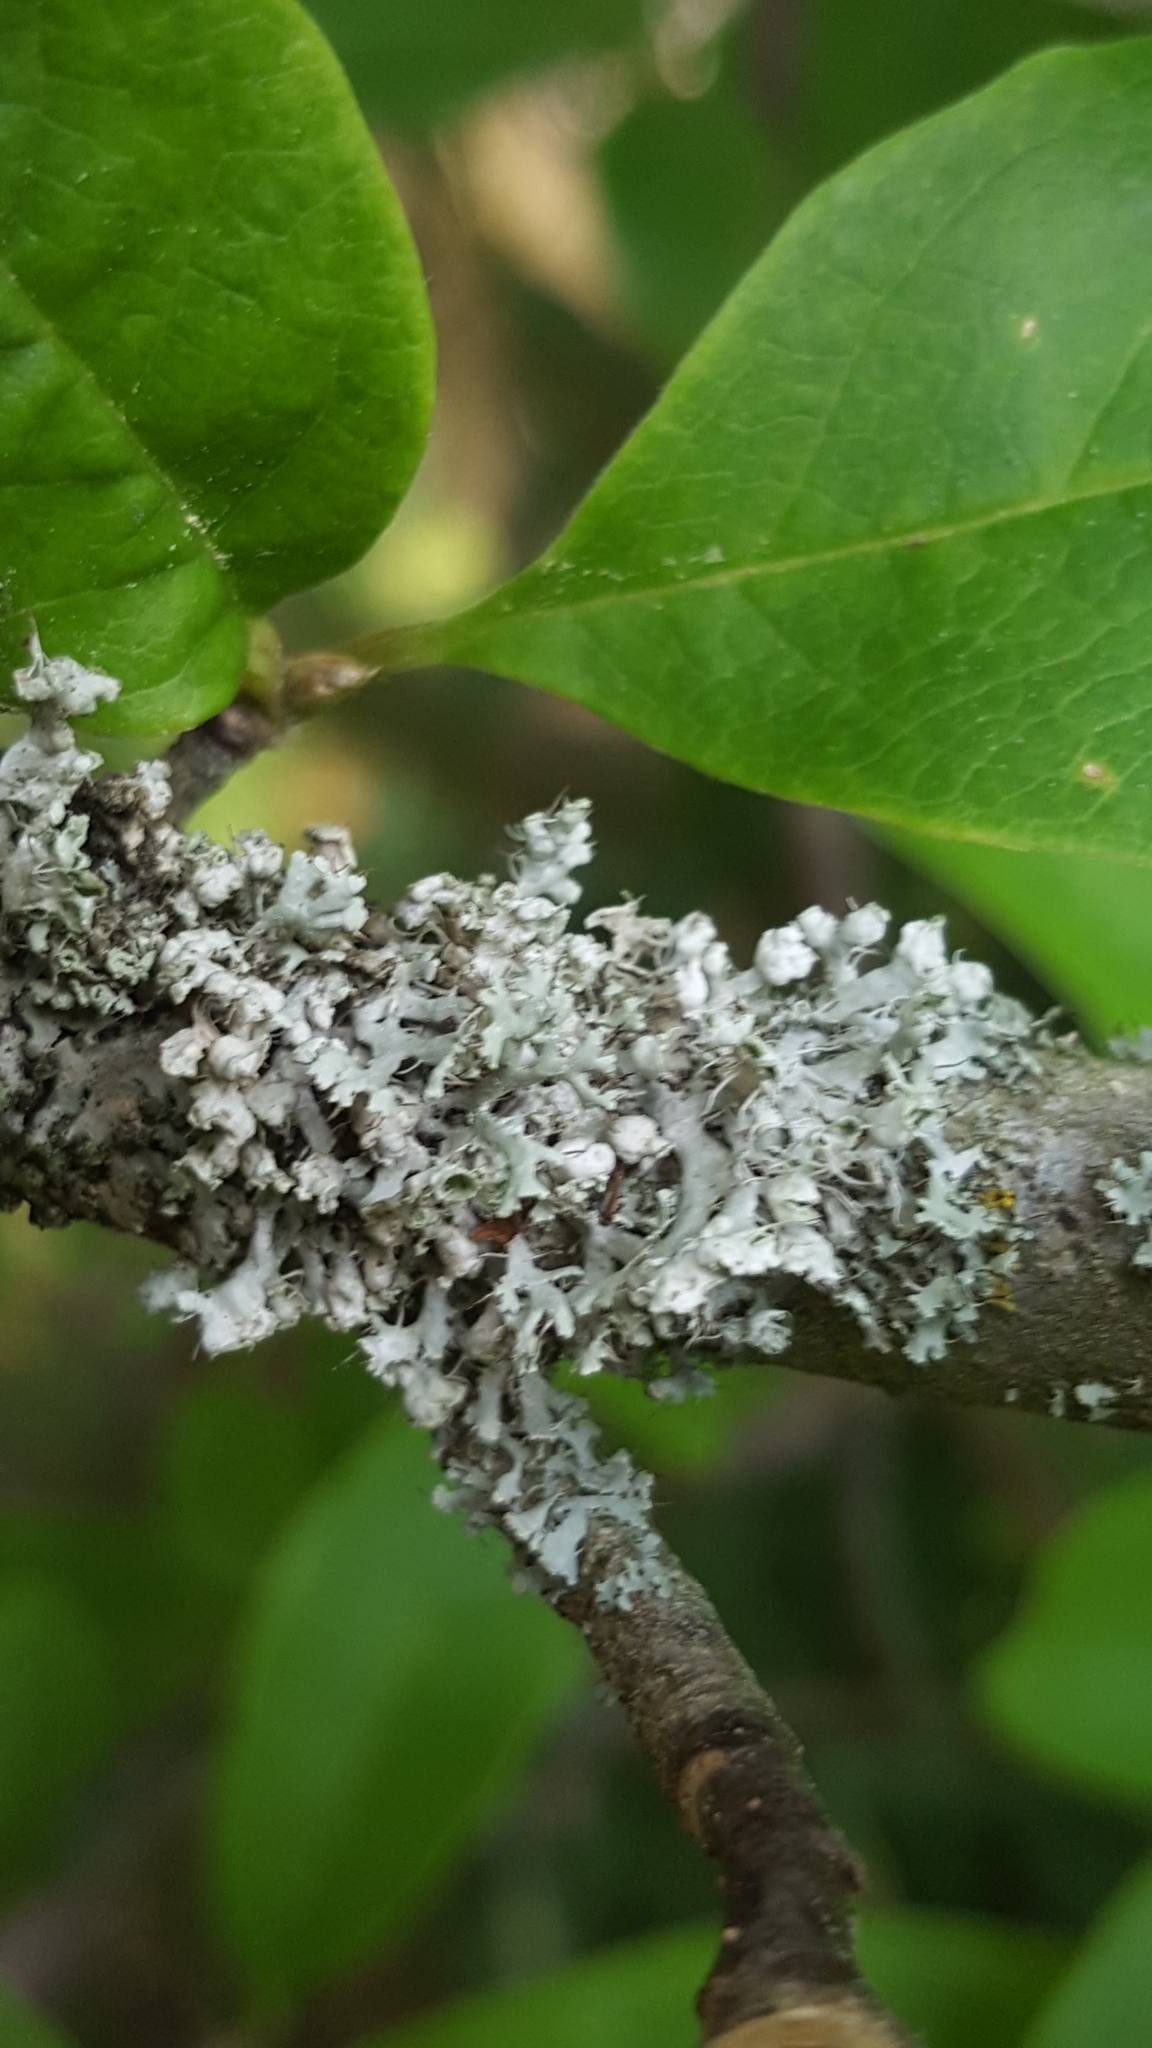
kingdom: Fungi
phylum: Ascomycota
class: Lecanoromycetes
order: Caliciales
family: Physciaceae
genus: Physcia
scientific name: Physcia adscendens
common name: Hooded rosette lichen
